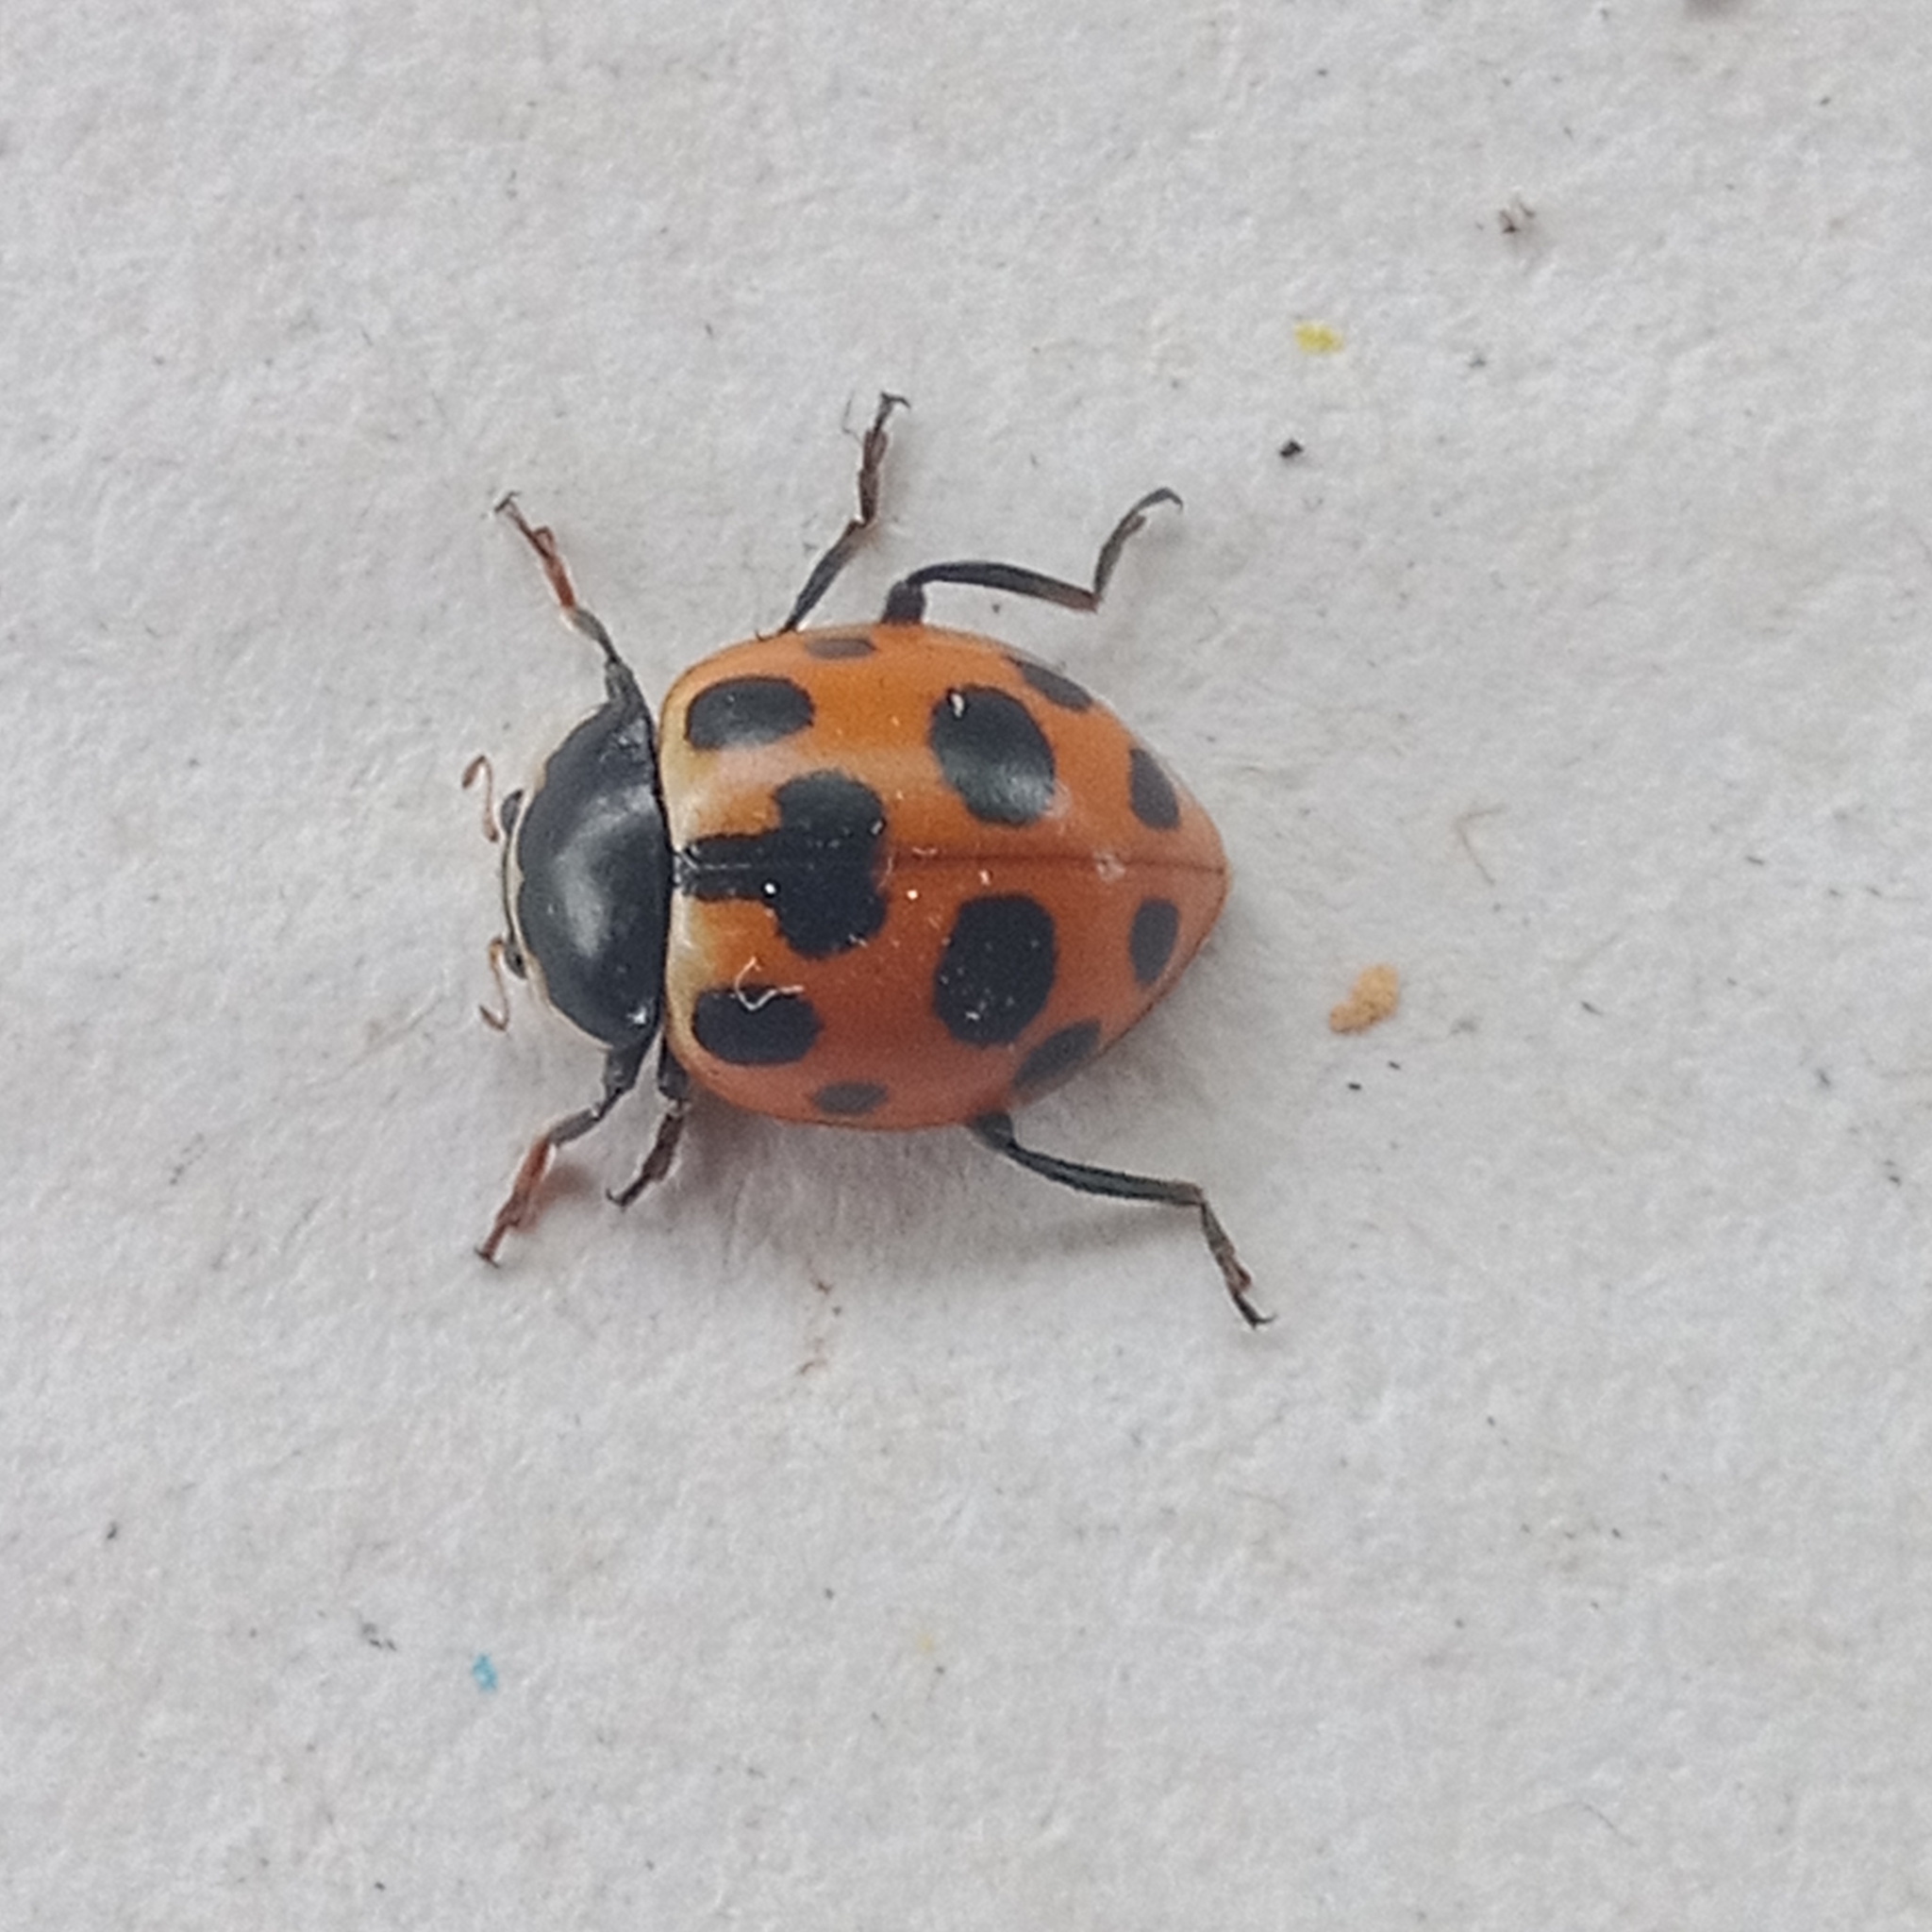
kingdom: Animalia
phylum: Arthropoda
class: Insecta
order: Coleoptera
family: Coccinellidae
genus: Ceratomegilla
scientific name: Ceratomegilla notata
